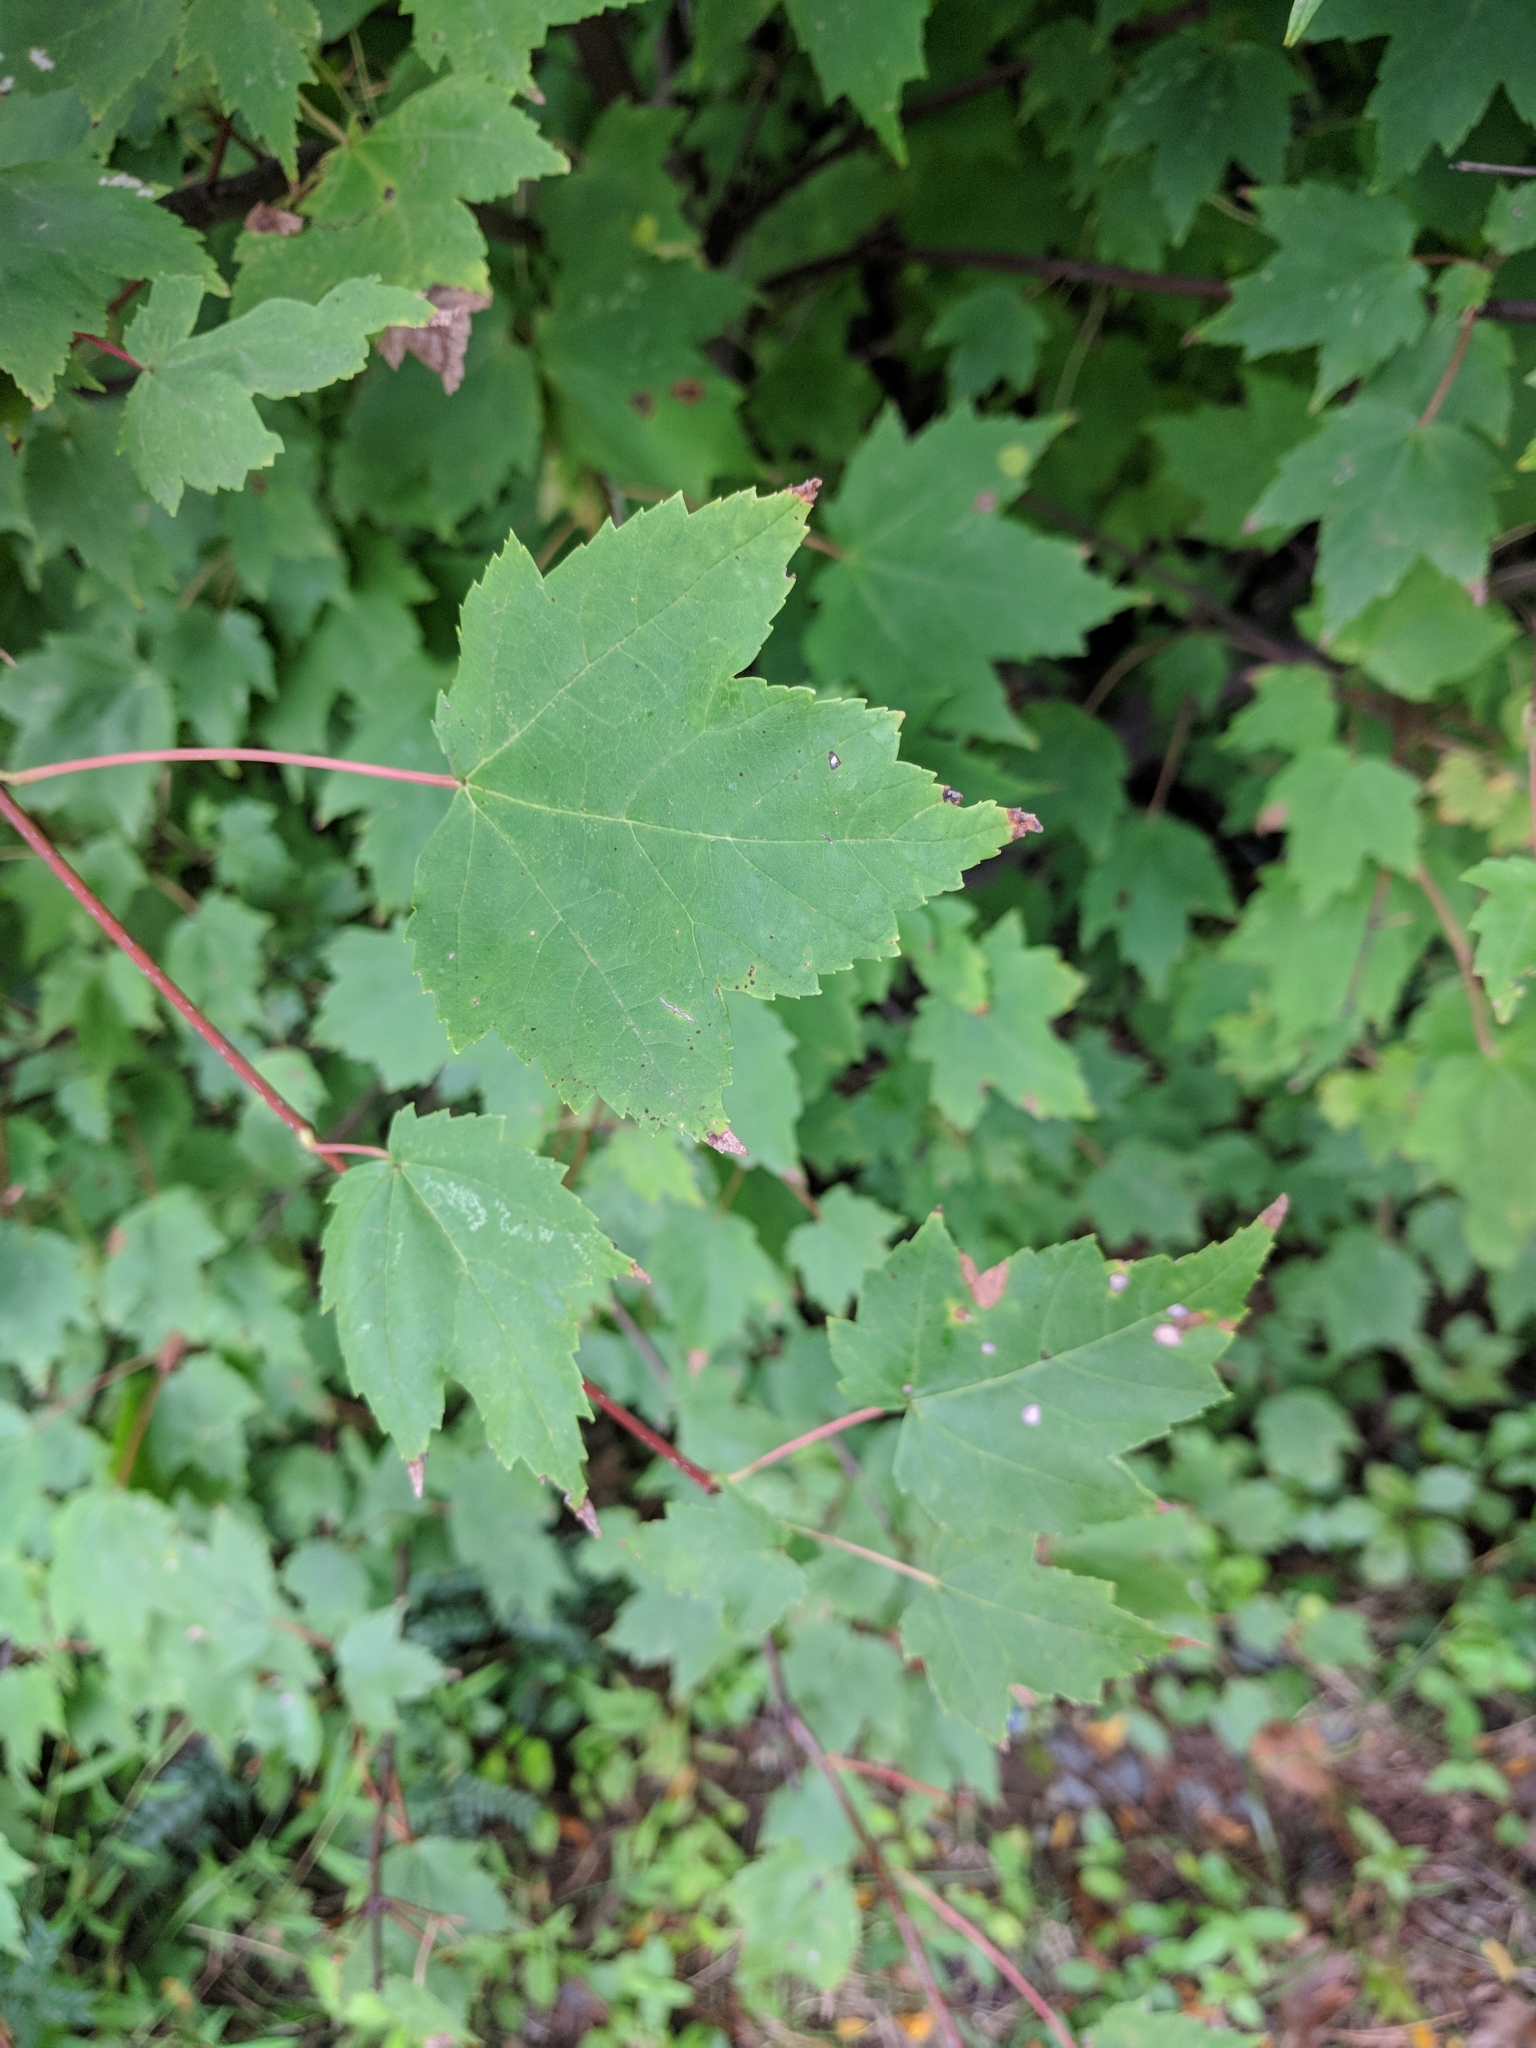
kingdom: Plantae
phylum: Tracheophyta
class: Magnoliopsida
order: Sapindales
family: Sapindaceae
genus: Acer
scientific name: Acer rubrum
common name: Red maple
